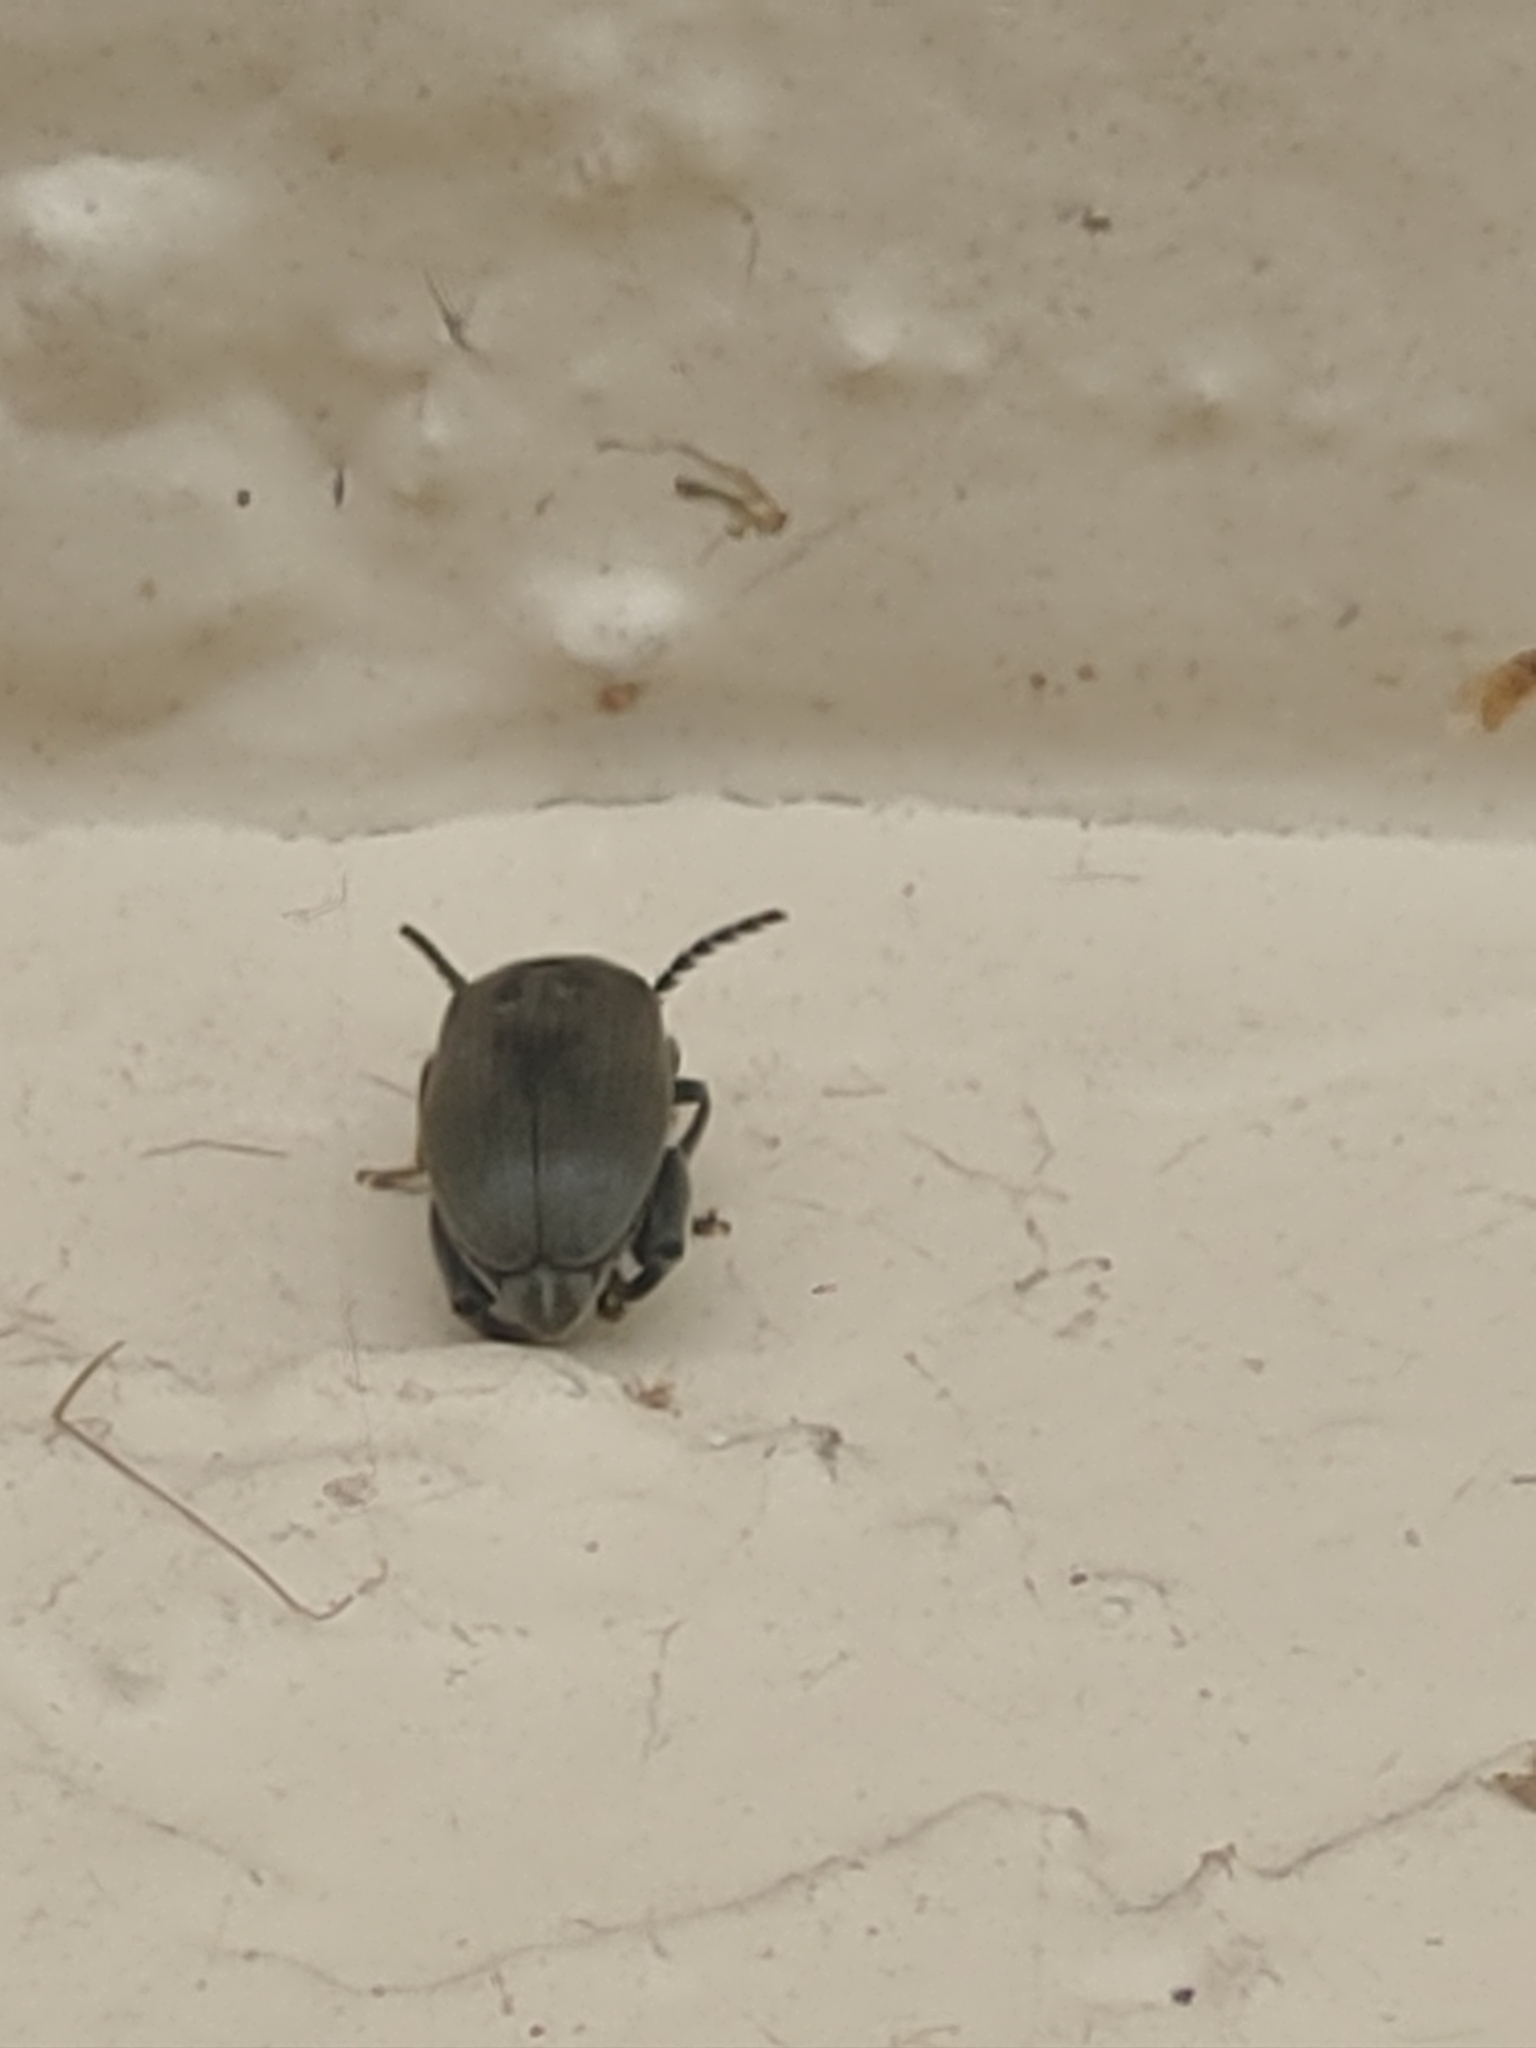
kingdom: Animalia
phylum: Arthropoda
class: Insecta
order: Coleoptera
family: Chrysomelidae
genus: Pachymerus
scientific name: Pachymerus
